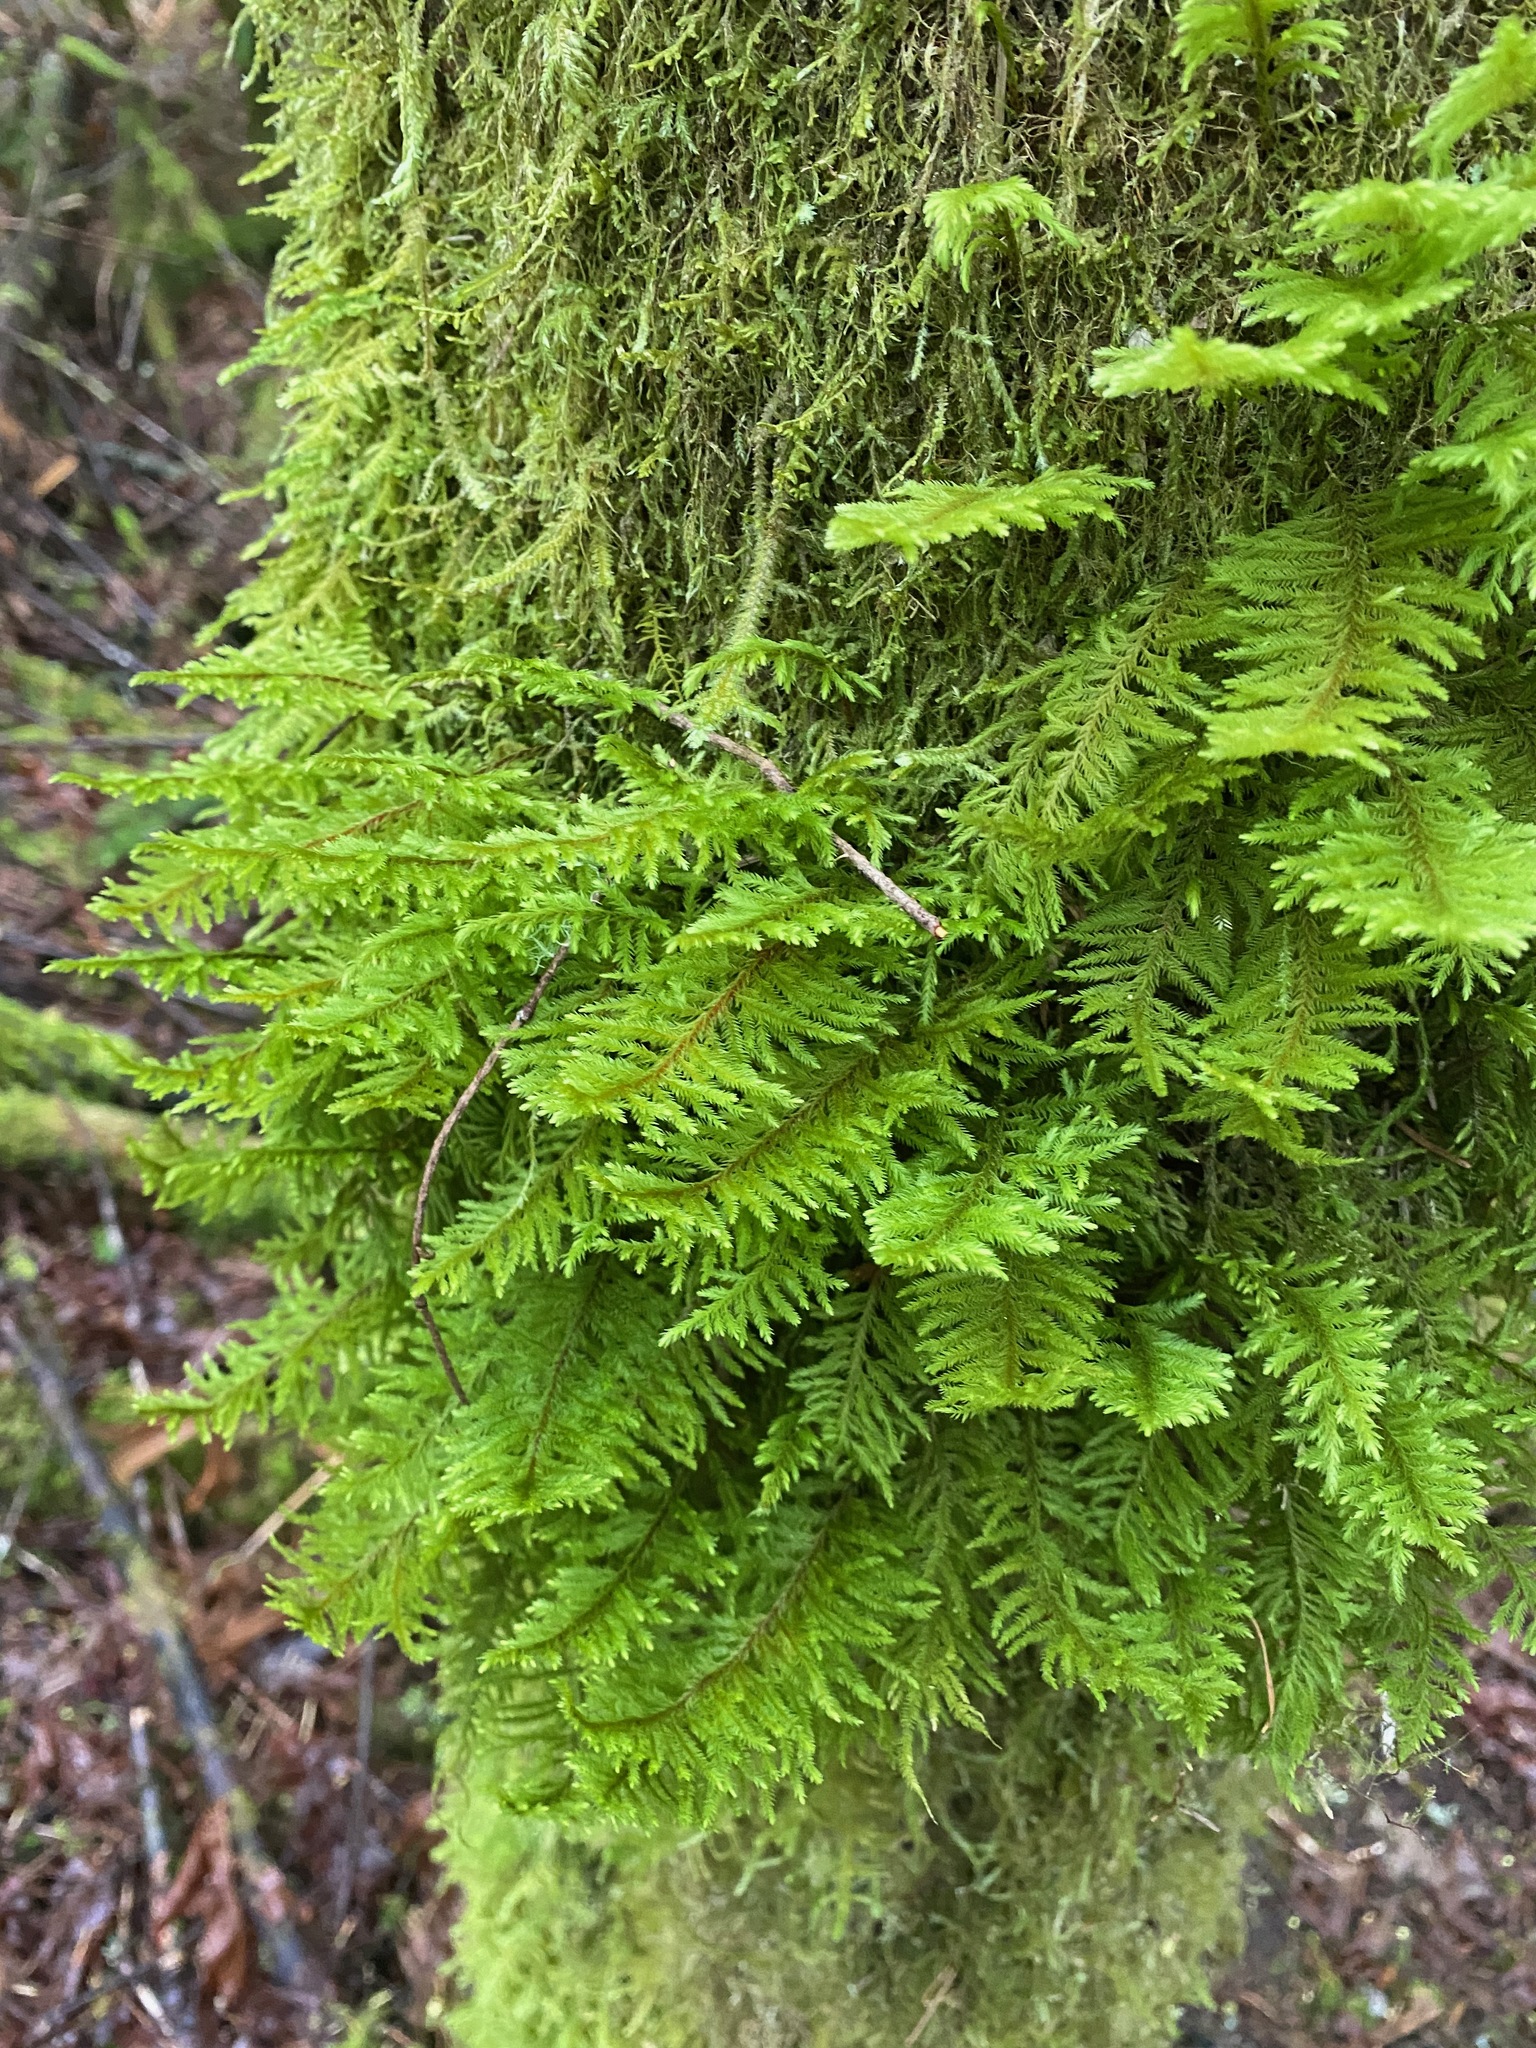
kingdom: Plantae
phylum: Bryophyta
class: Bryopsida
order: Hypnales
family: Cryphaeaceae
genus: Dendroalsia
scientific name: Dendroalsia abietina
